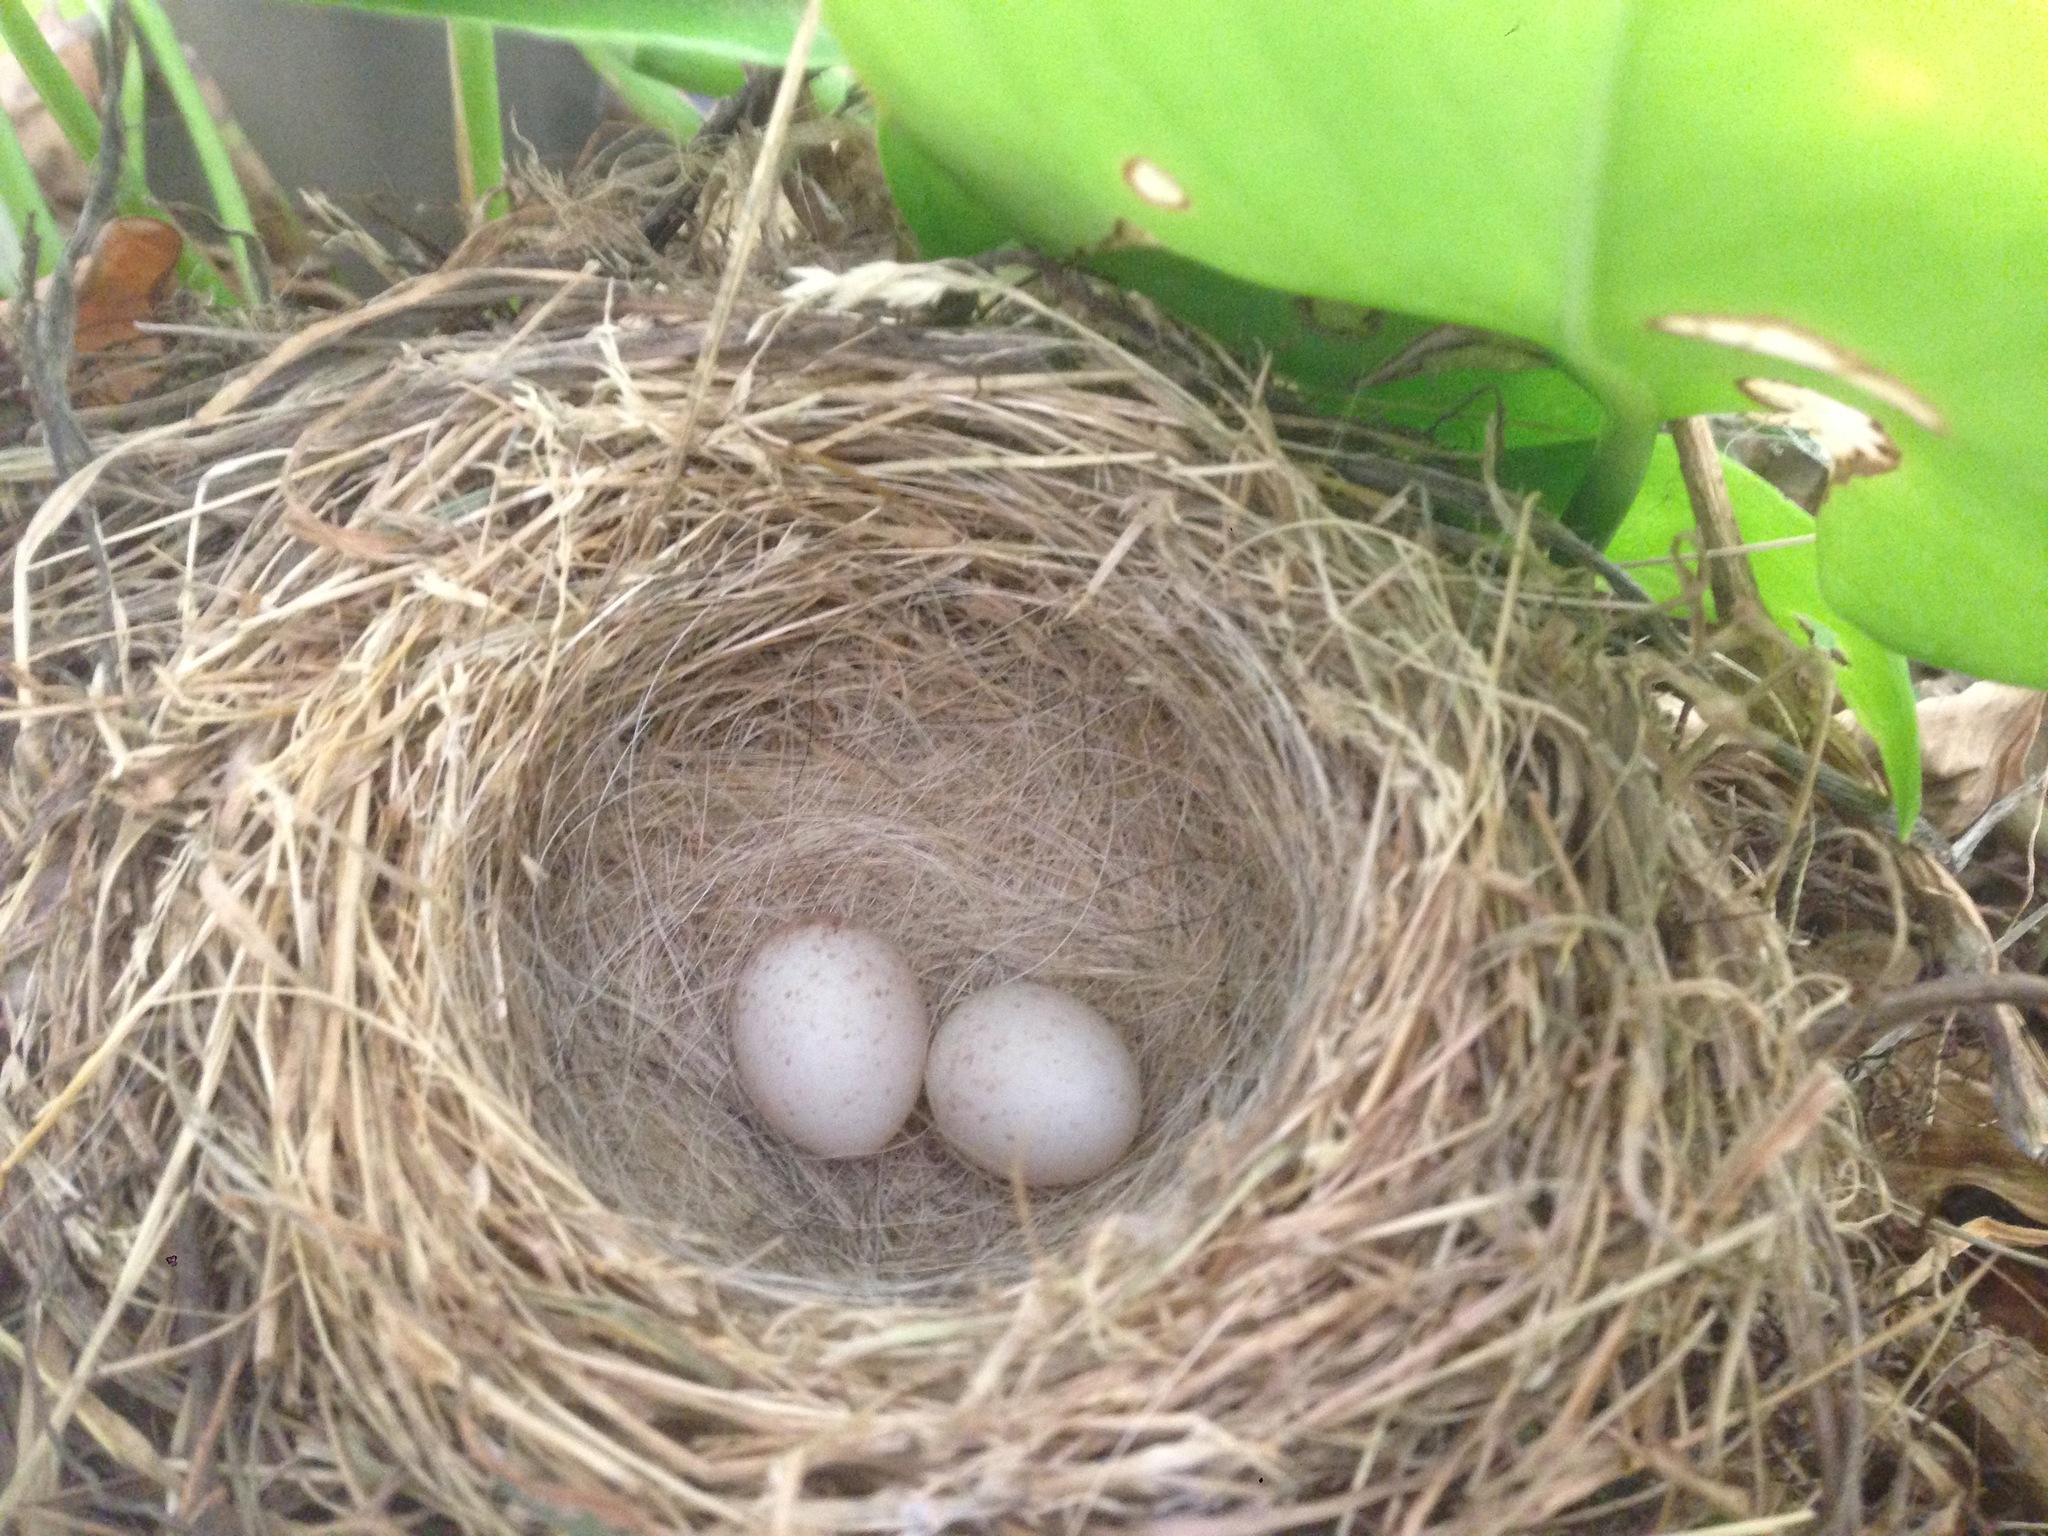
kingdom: Animalia
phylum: Chordata
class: Aves
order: Passeriformes
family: Passerellidae
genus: Junco
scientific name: Junco hyemalis
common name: Dark-eyed junco
